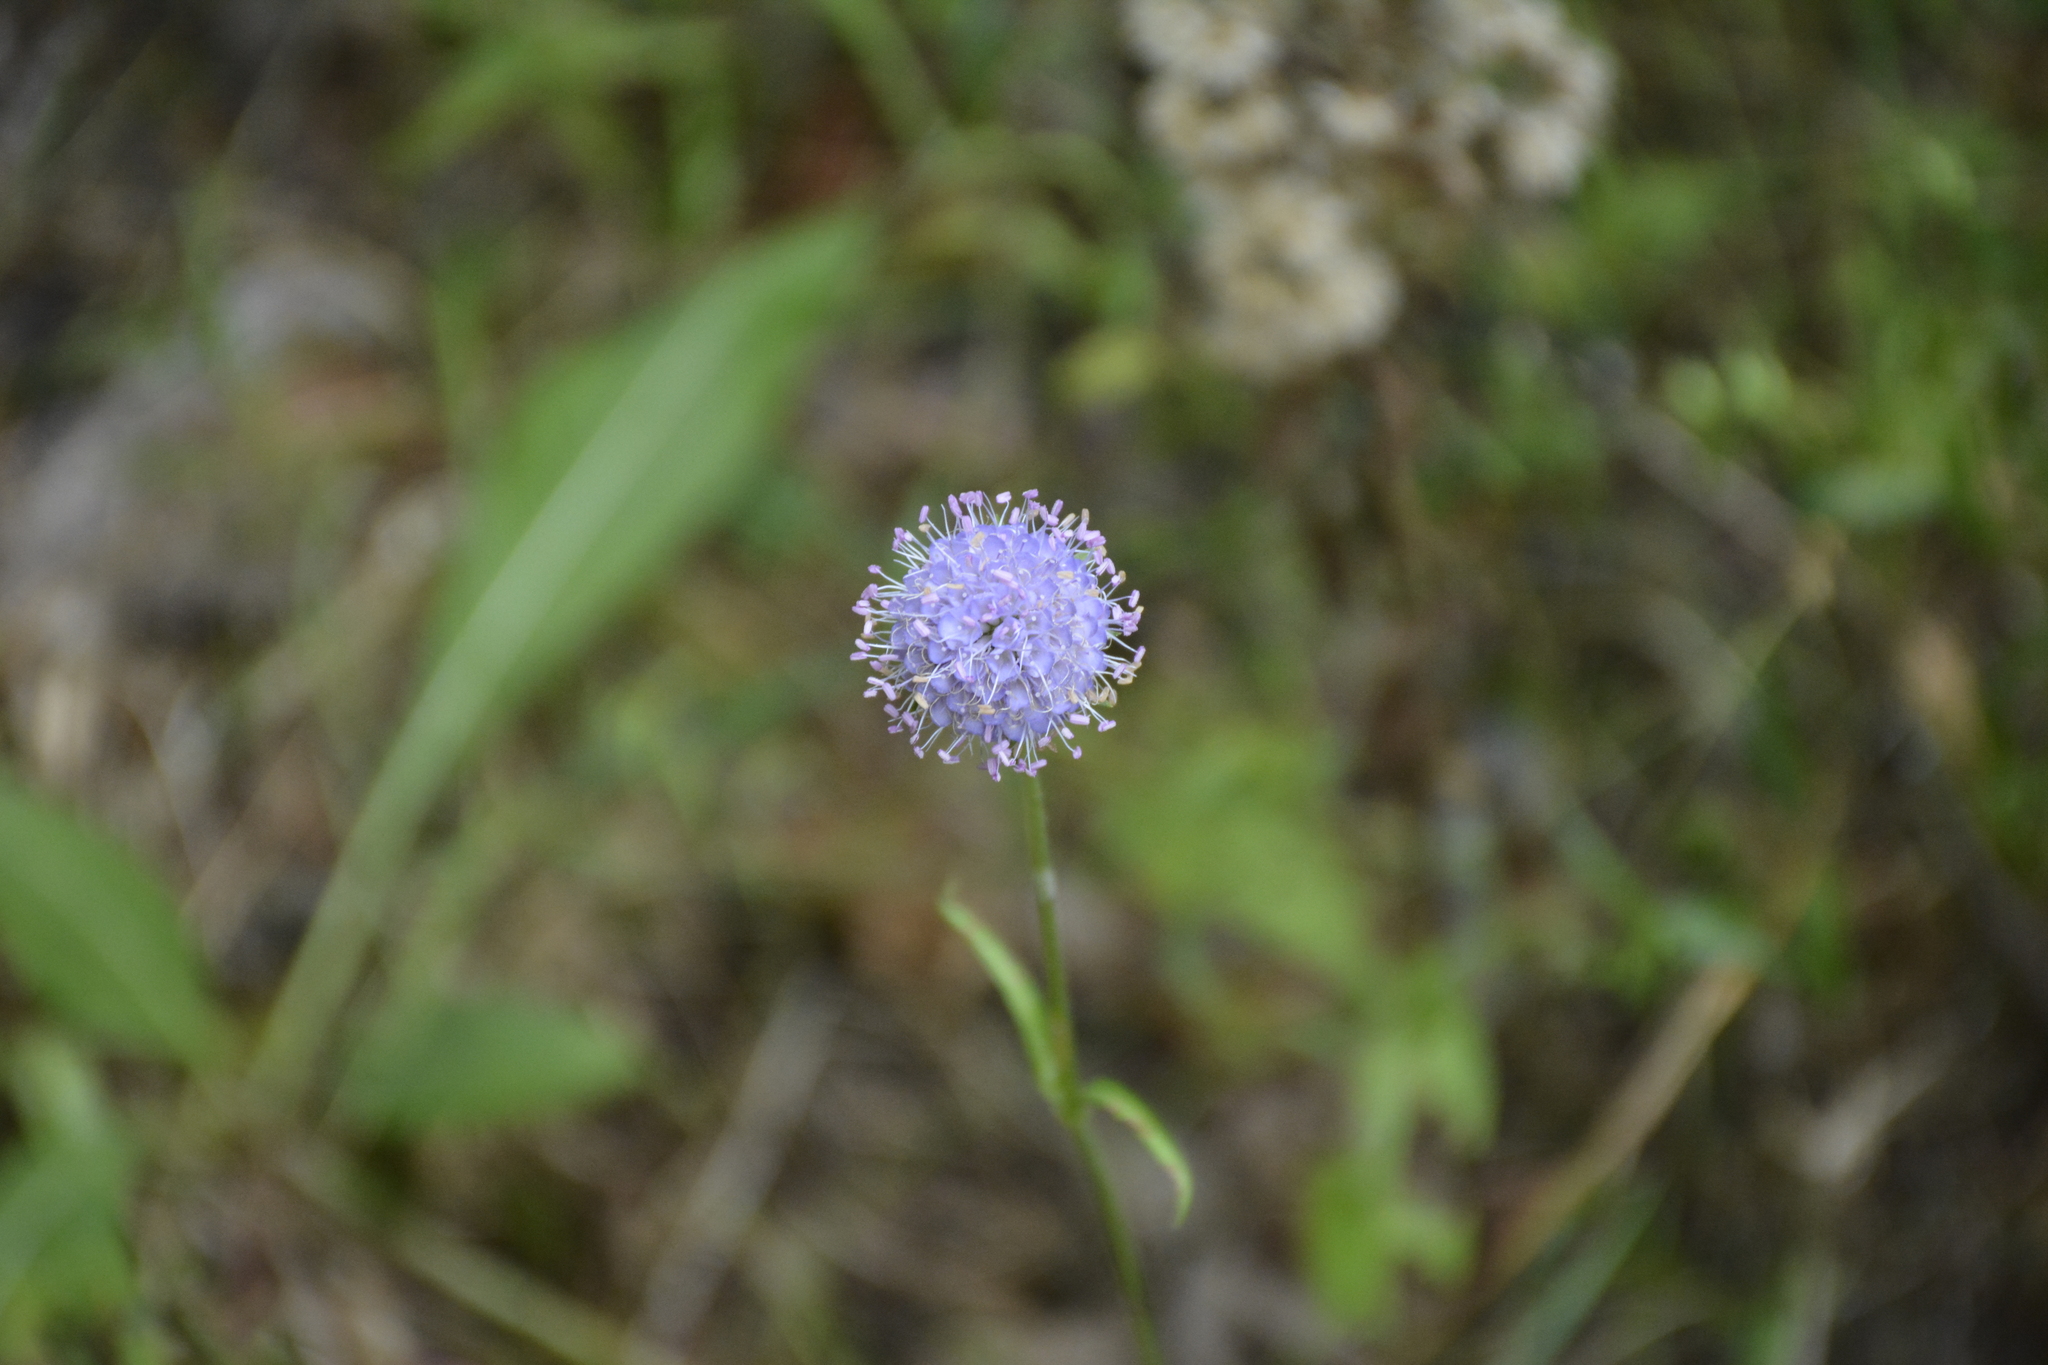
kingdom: Plantae
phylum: Tracheophyta
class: Magnoliopsida
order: Dipsacales
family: Caprifoliaceae
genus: Succisa
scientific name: Succisa pratensis
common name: Devil's-bit
